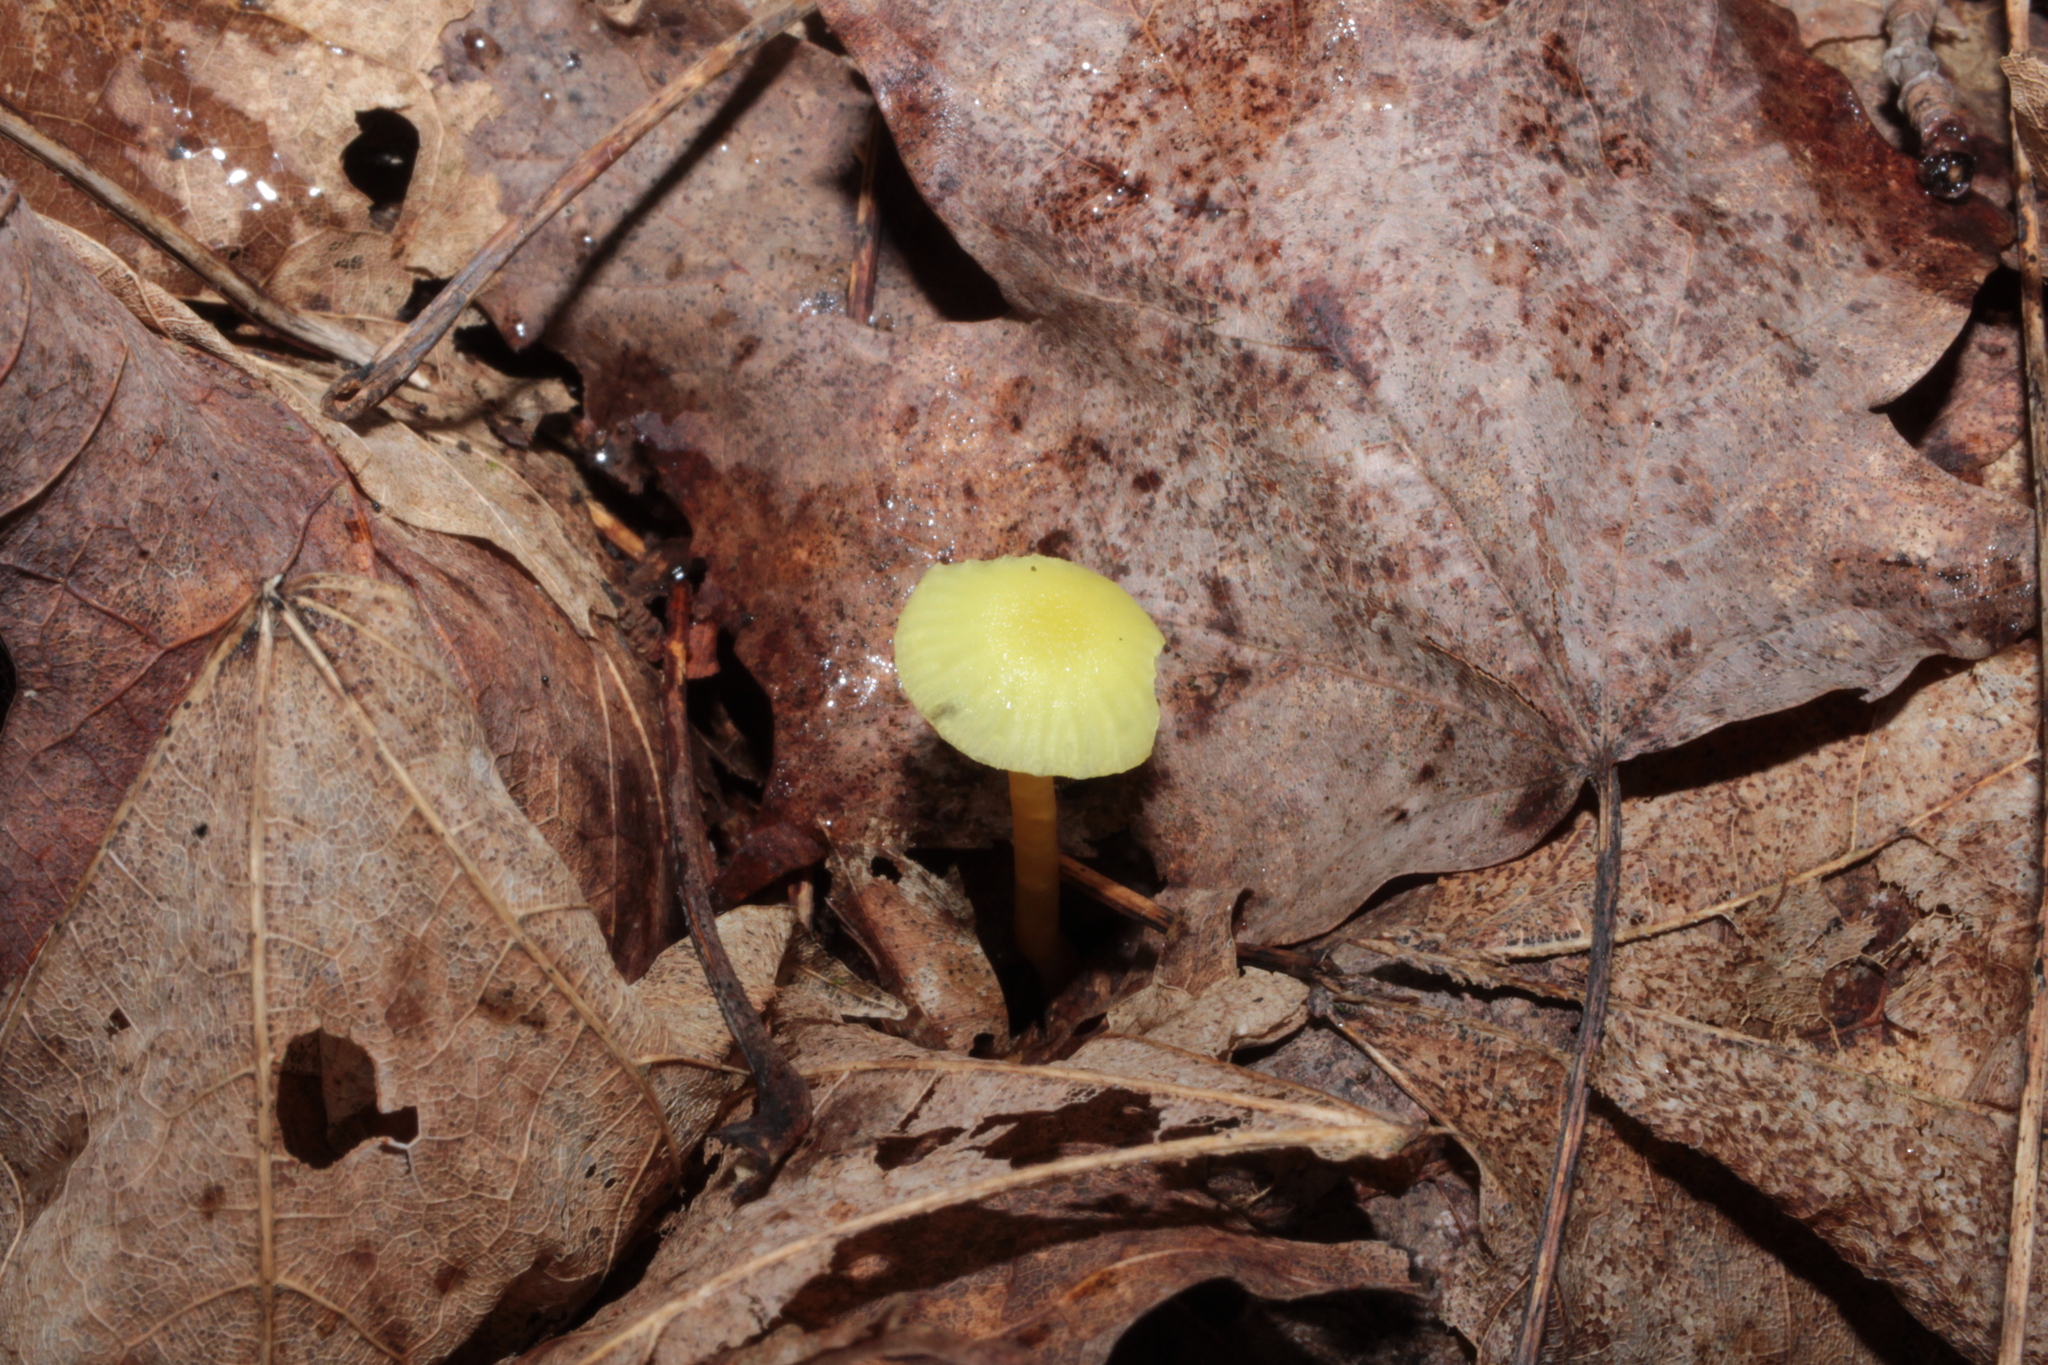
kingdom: Fungi
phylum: Basidiomycota
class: Agaricomycetes
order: Agaricales
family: Hygrophoraceae
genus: Hygrocybe
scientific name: Hygrocybe parvula
